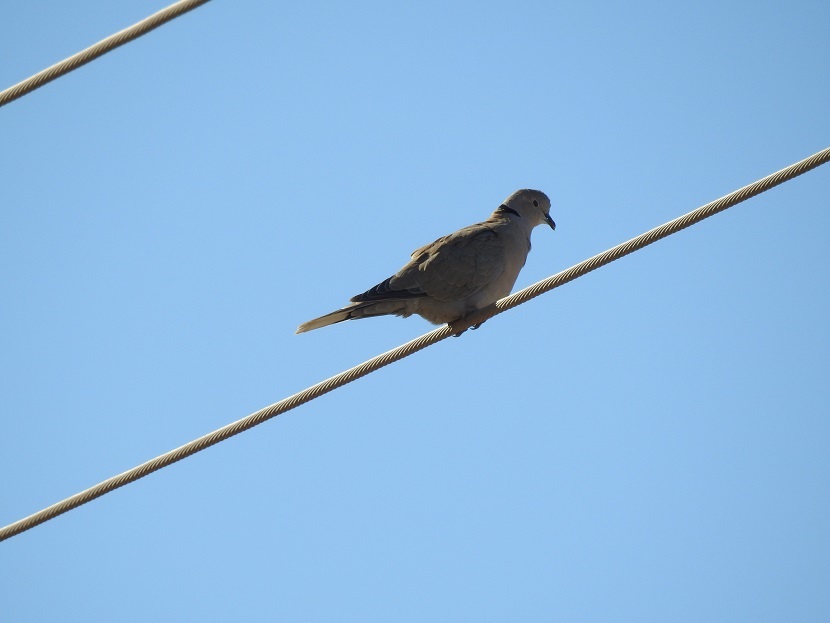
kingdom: Animalia
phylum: Chordata
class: Aves
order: Columbiformes
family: Columbidae
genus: Streptopelia
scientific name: Streptopelia decaocto
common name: Eurasian collared dove
